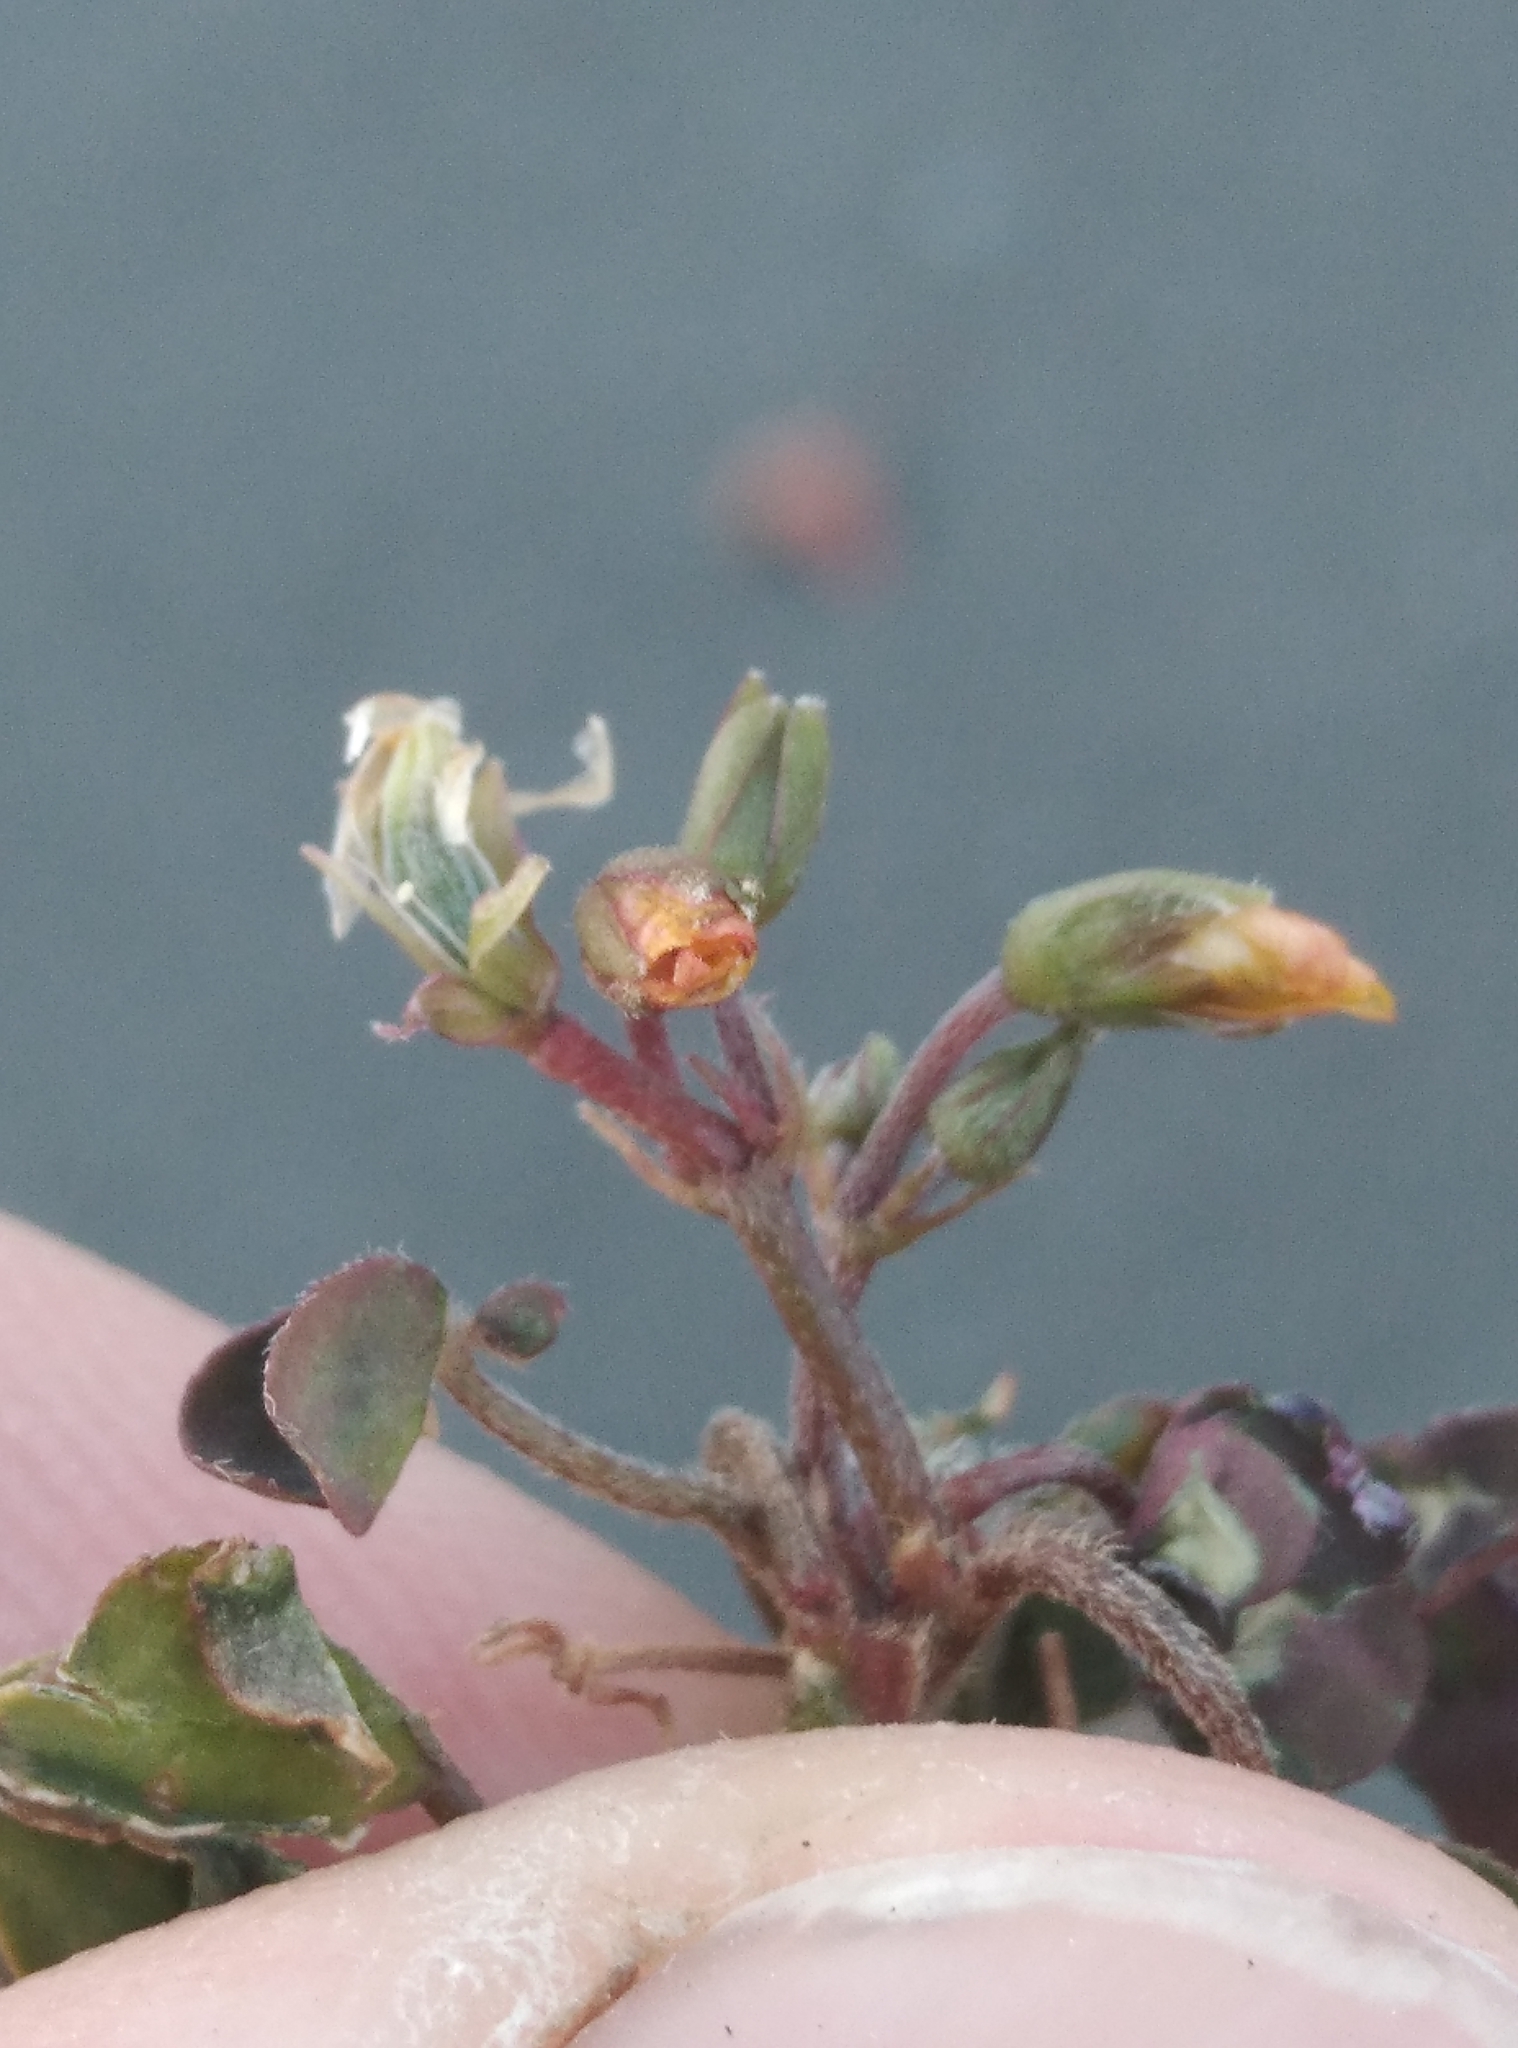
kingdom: Plantae
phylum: Tracheophyta
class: Magnoliopsida
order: Oxalidales
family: Oxalidaceae
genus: Oxalis
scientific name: Oxalis corniculata
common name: Procumbent yellow-sorrel
